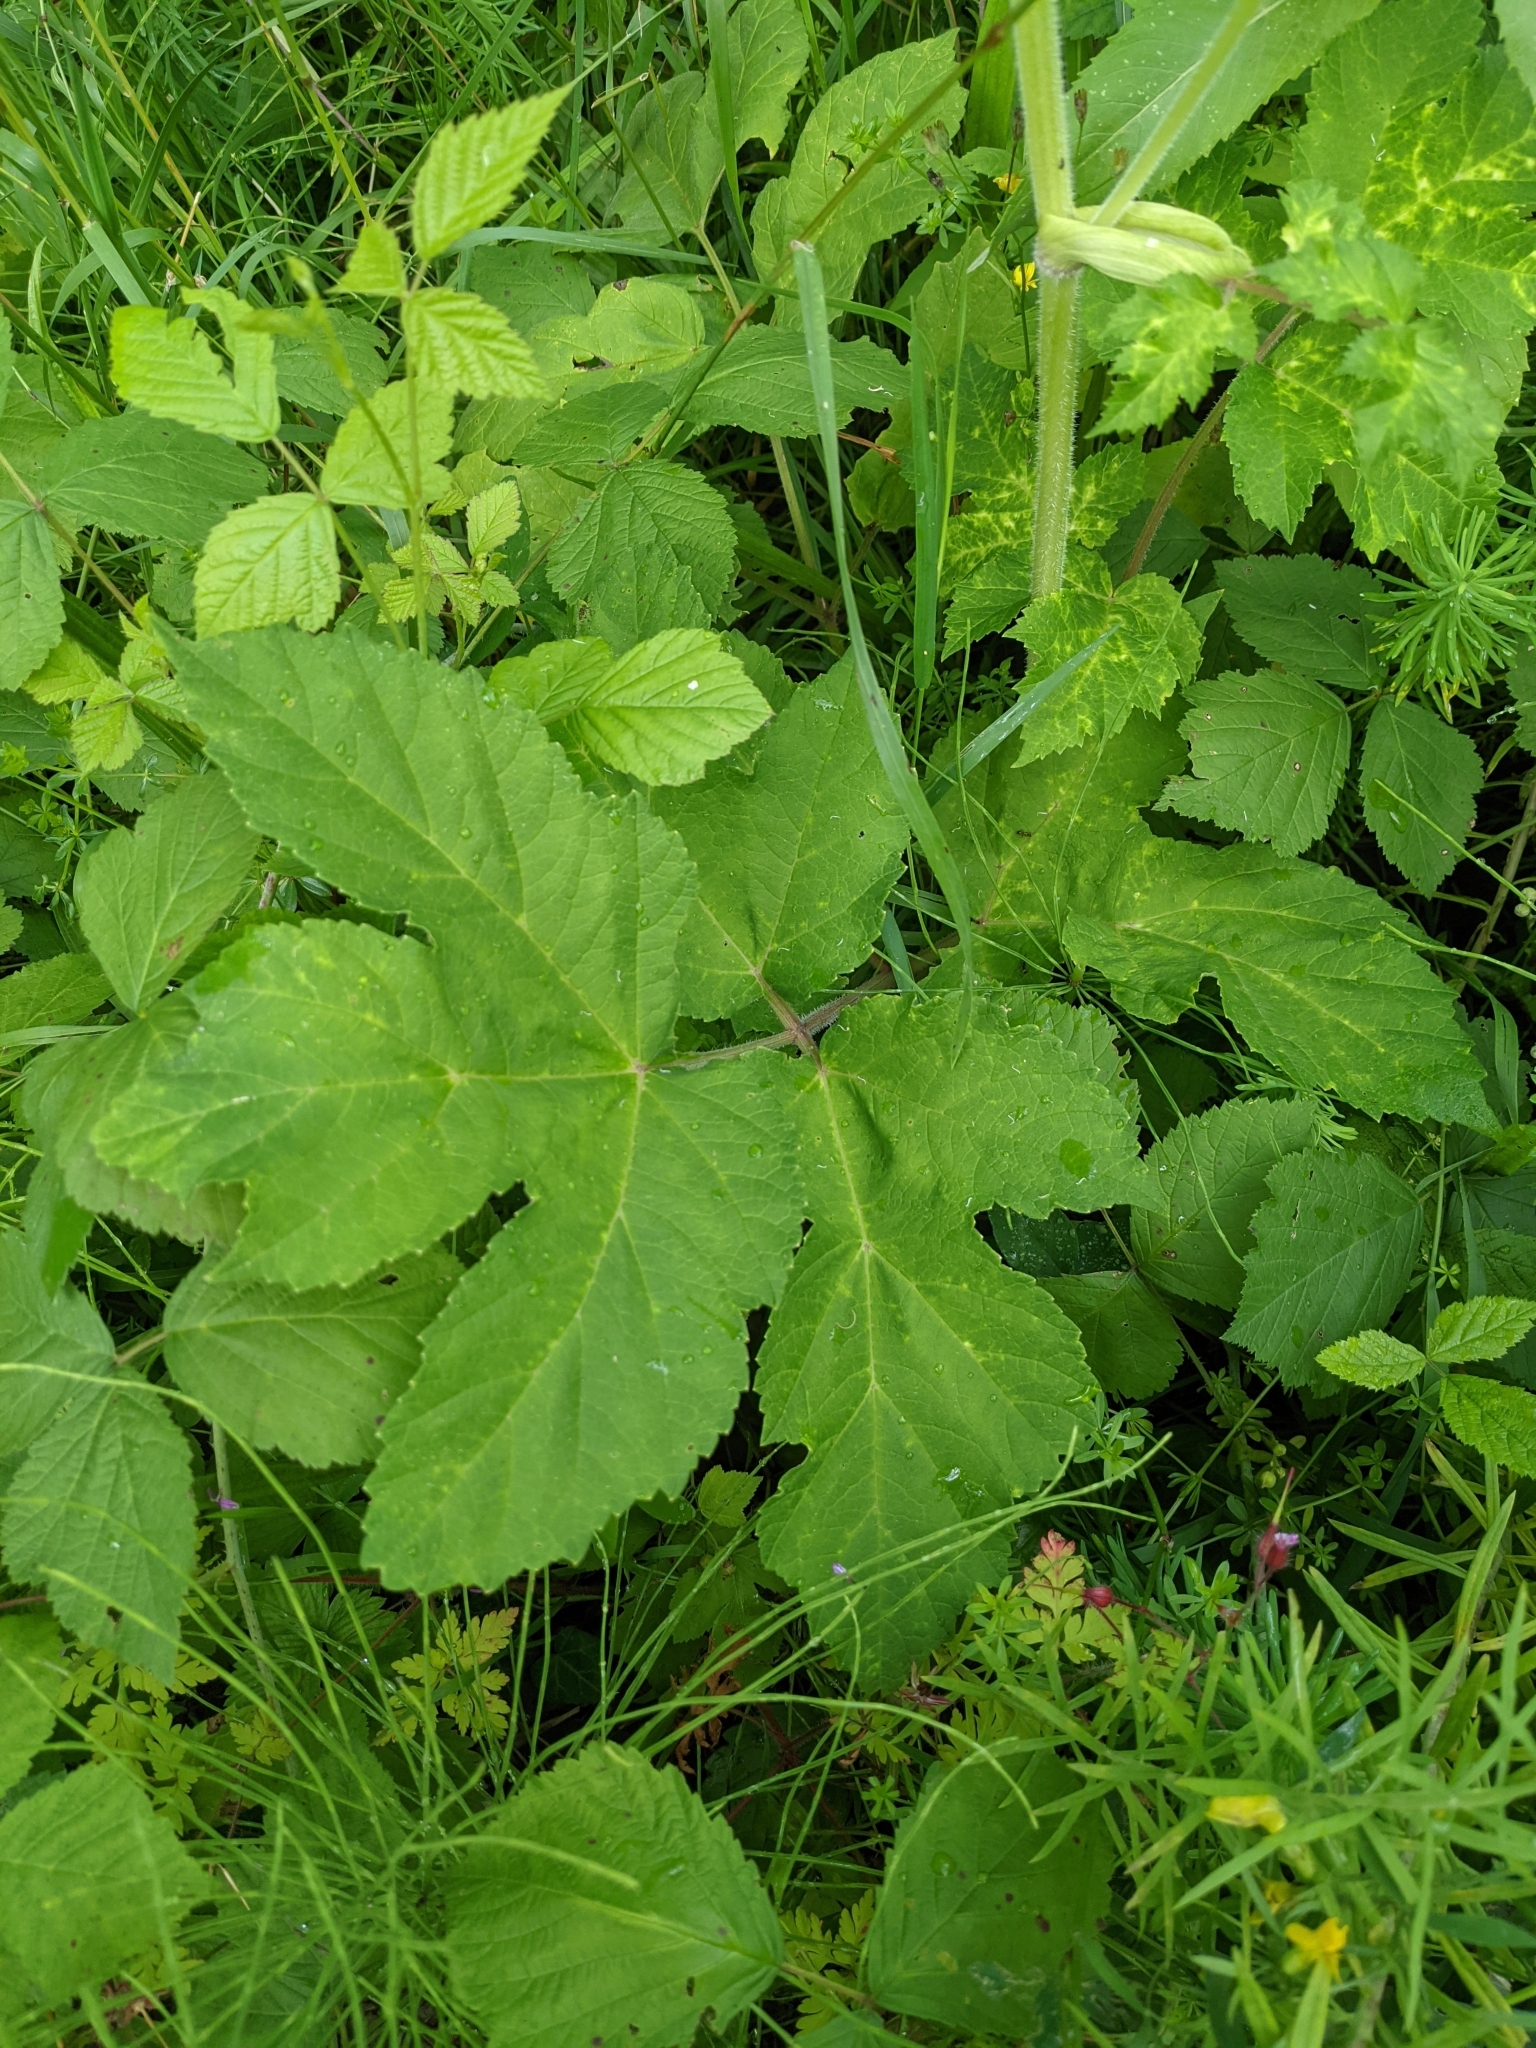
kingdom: Plantae
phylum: Tracheophyta
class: Magnoliopsida
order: Apiales
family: Apiaceae
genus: Heracleum
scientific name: Heracleum sphondylium
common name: Hogweed
